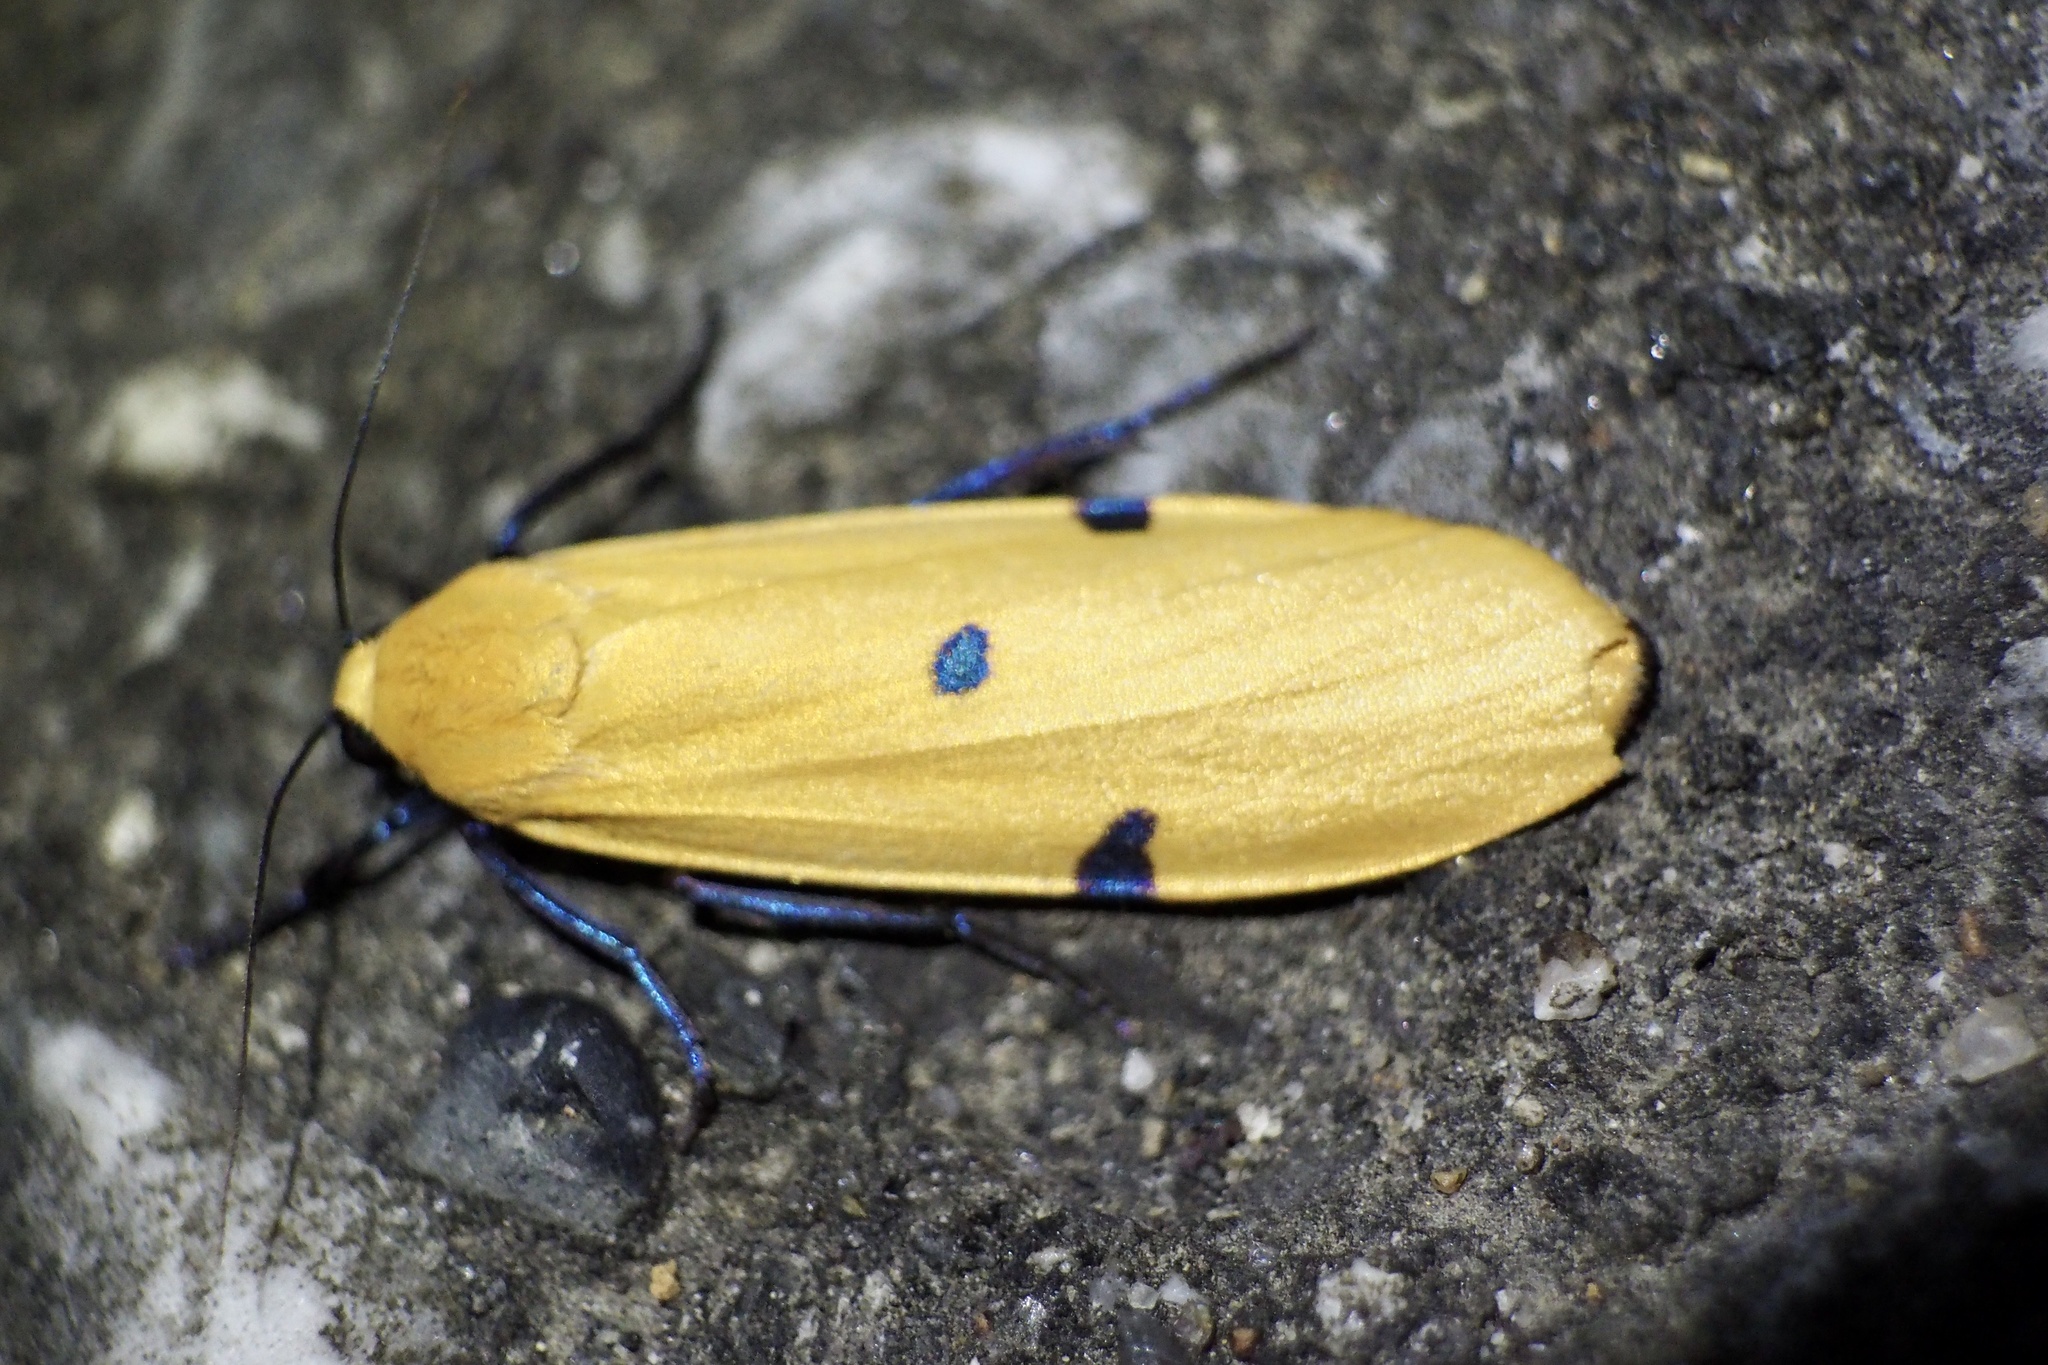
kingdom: Animalia
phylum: Arthropoda
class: Insecta
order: Lepidoptera
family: Erebidae
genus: Conilepia
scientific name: Conilepia nigricosta
